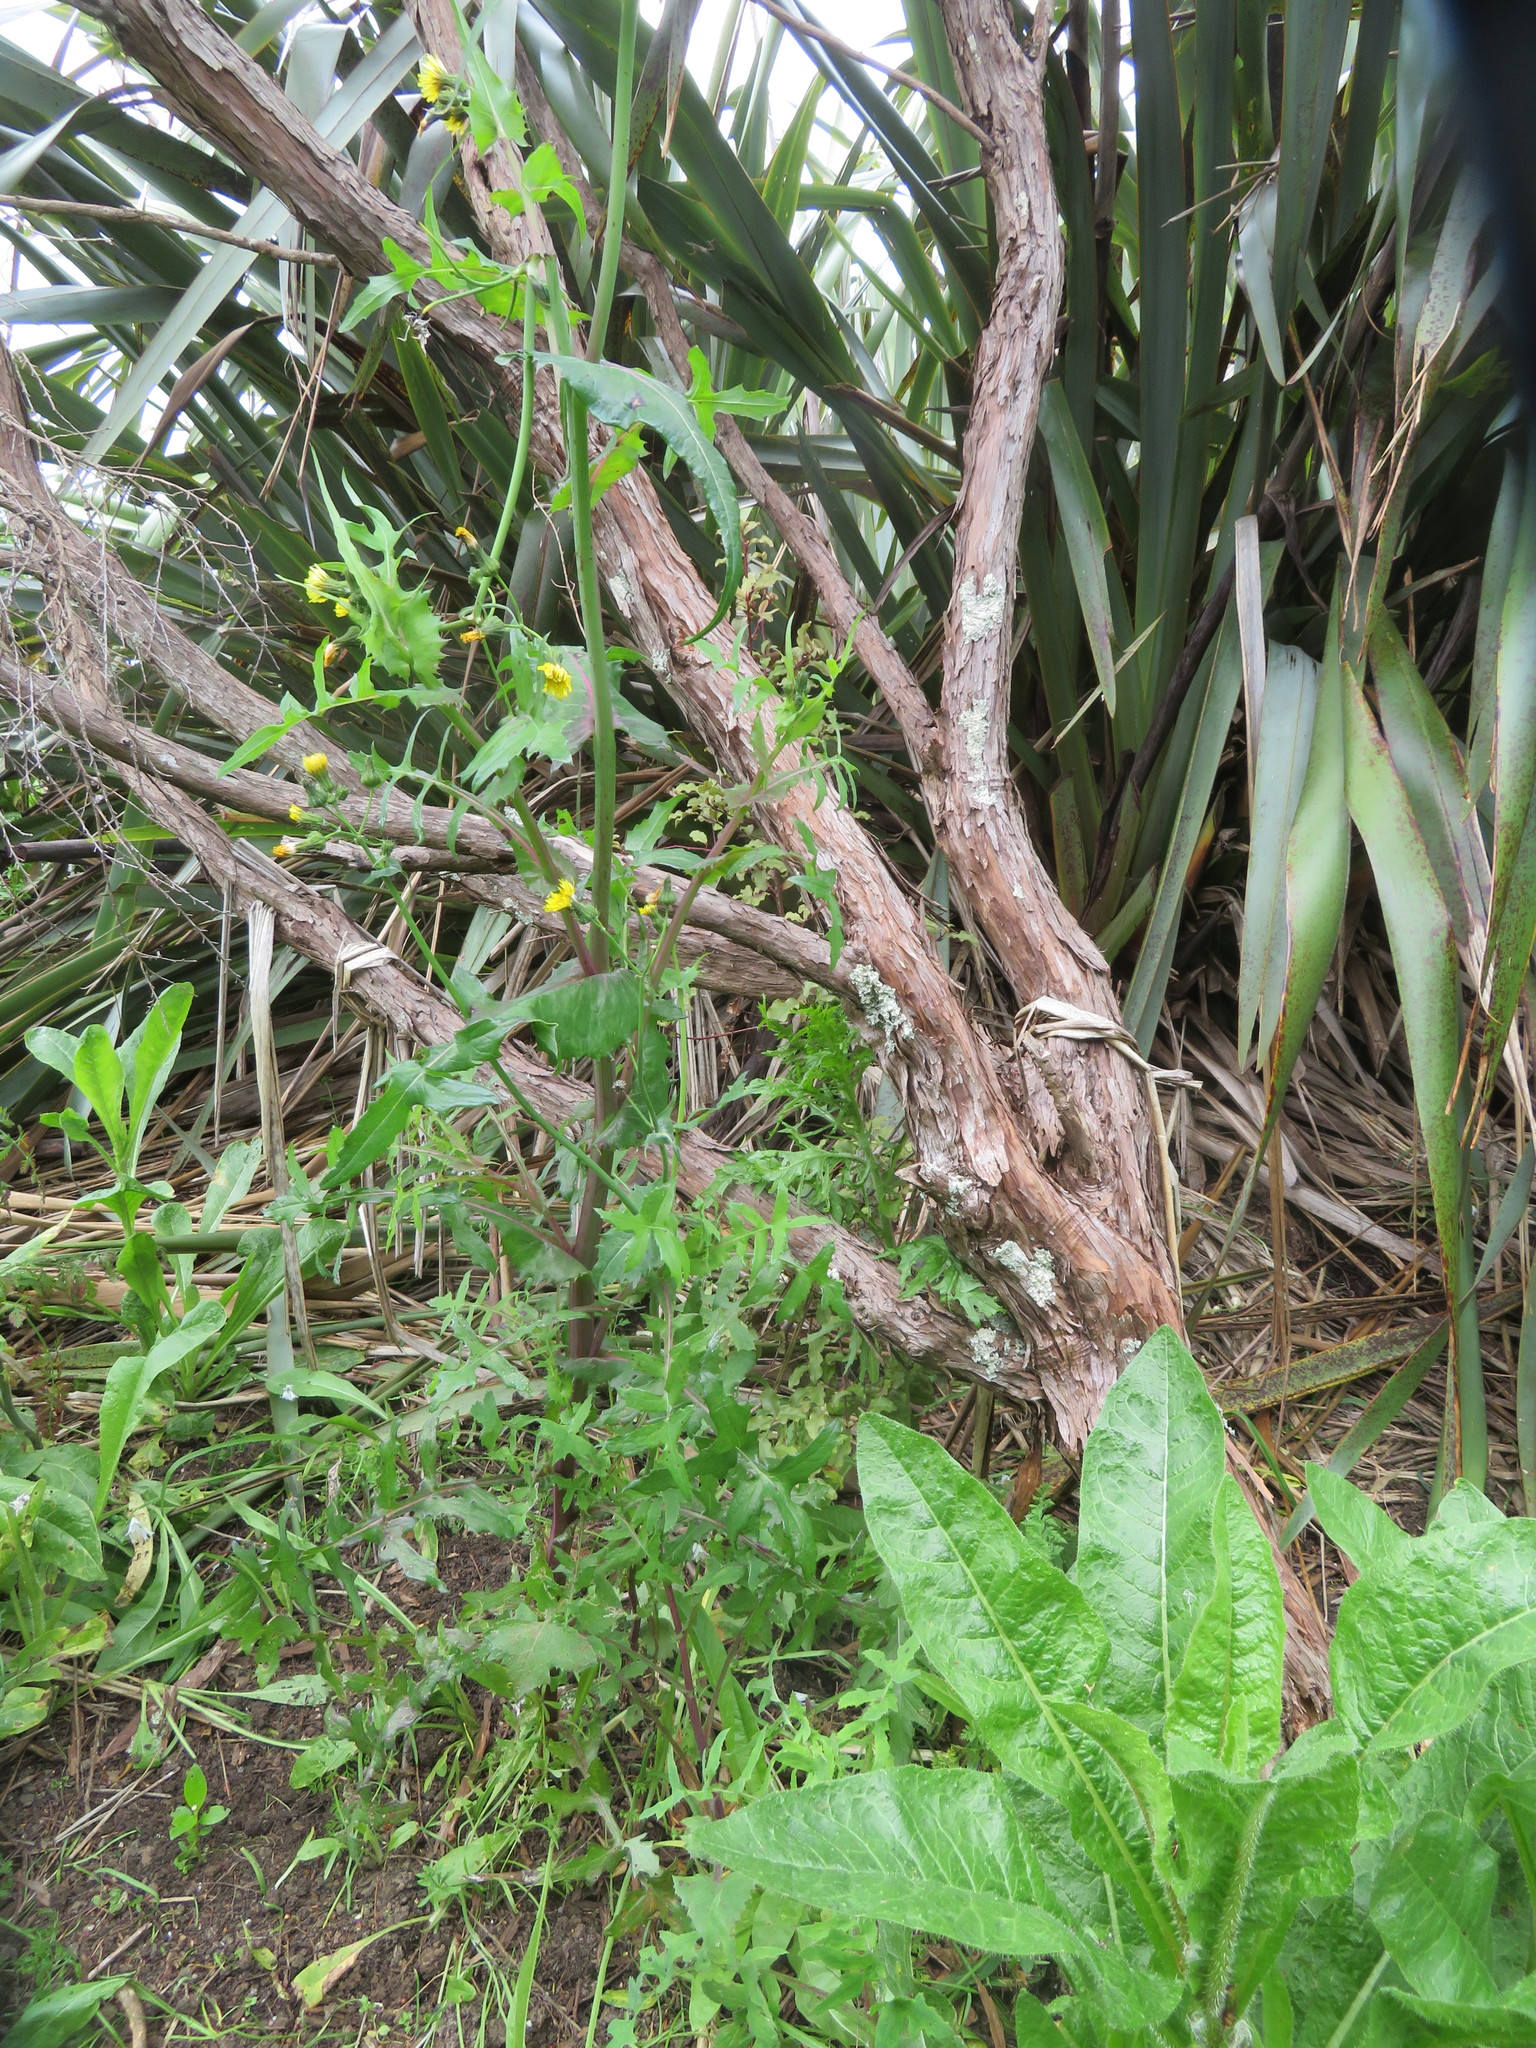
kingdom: Plantae
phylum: Tracheophyta
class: Magnoliopsida
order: Asterales
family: Asteraceae
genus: Sonchus
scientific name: Sonchus oleraceus
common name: Common sowthistle
